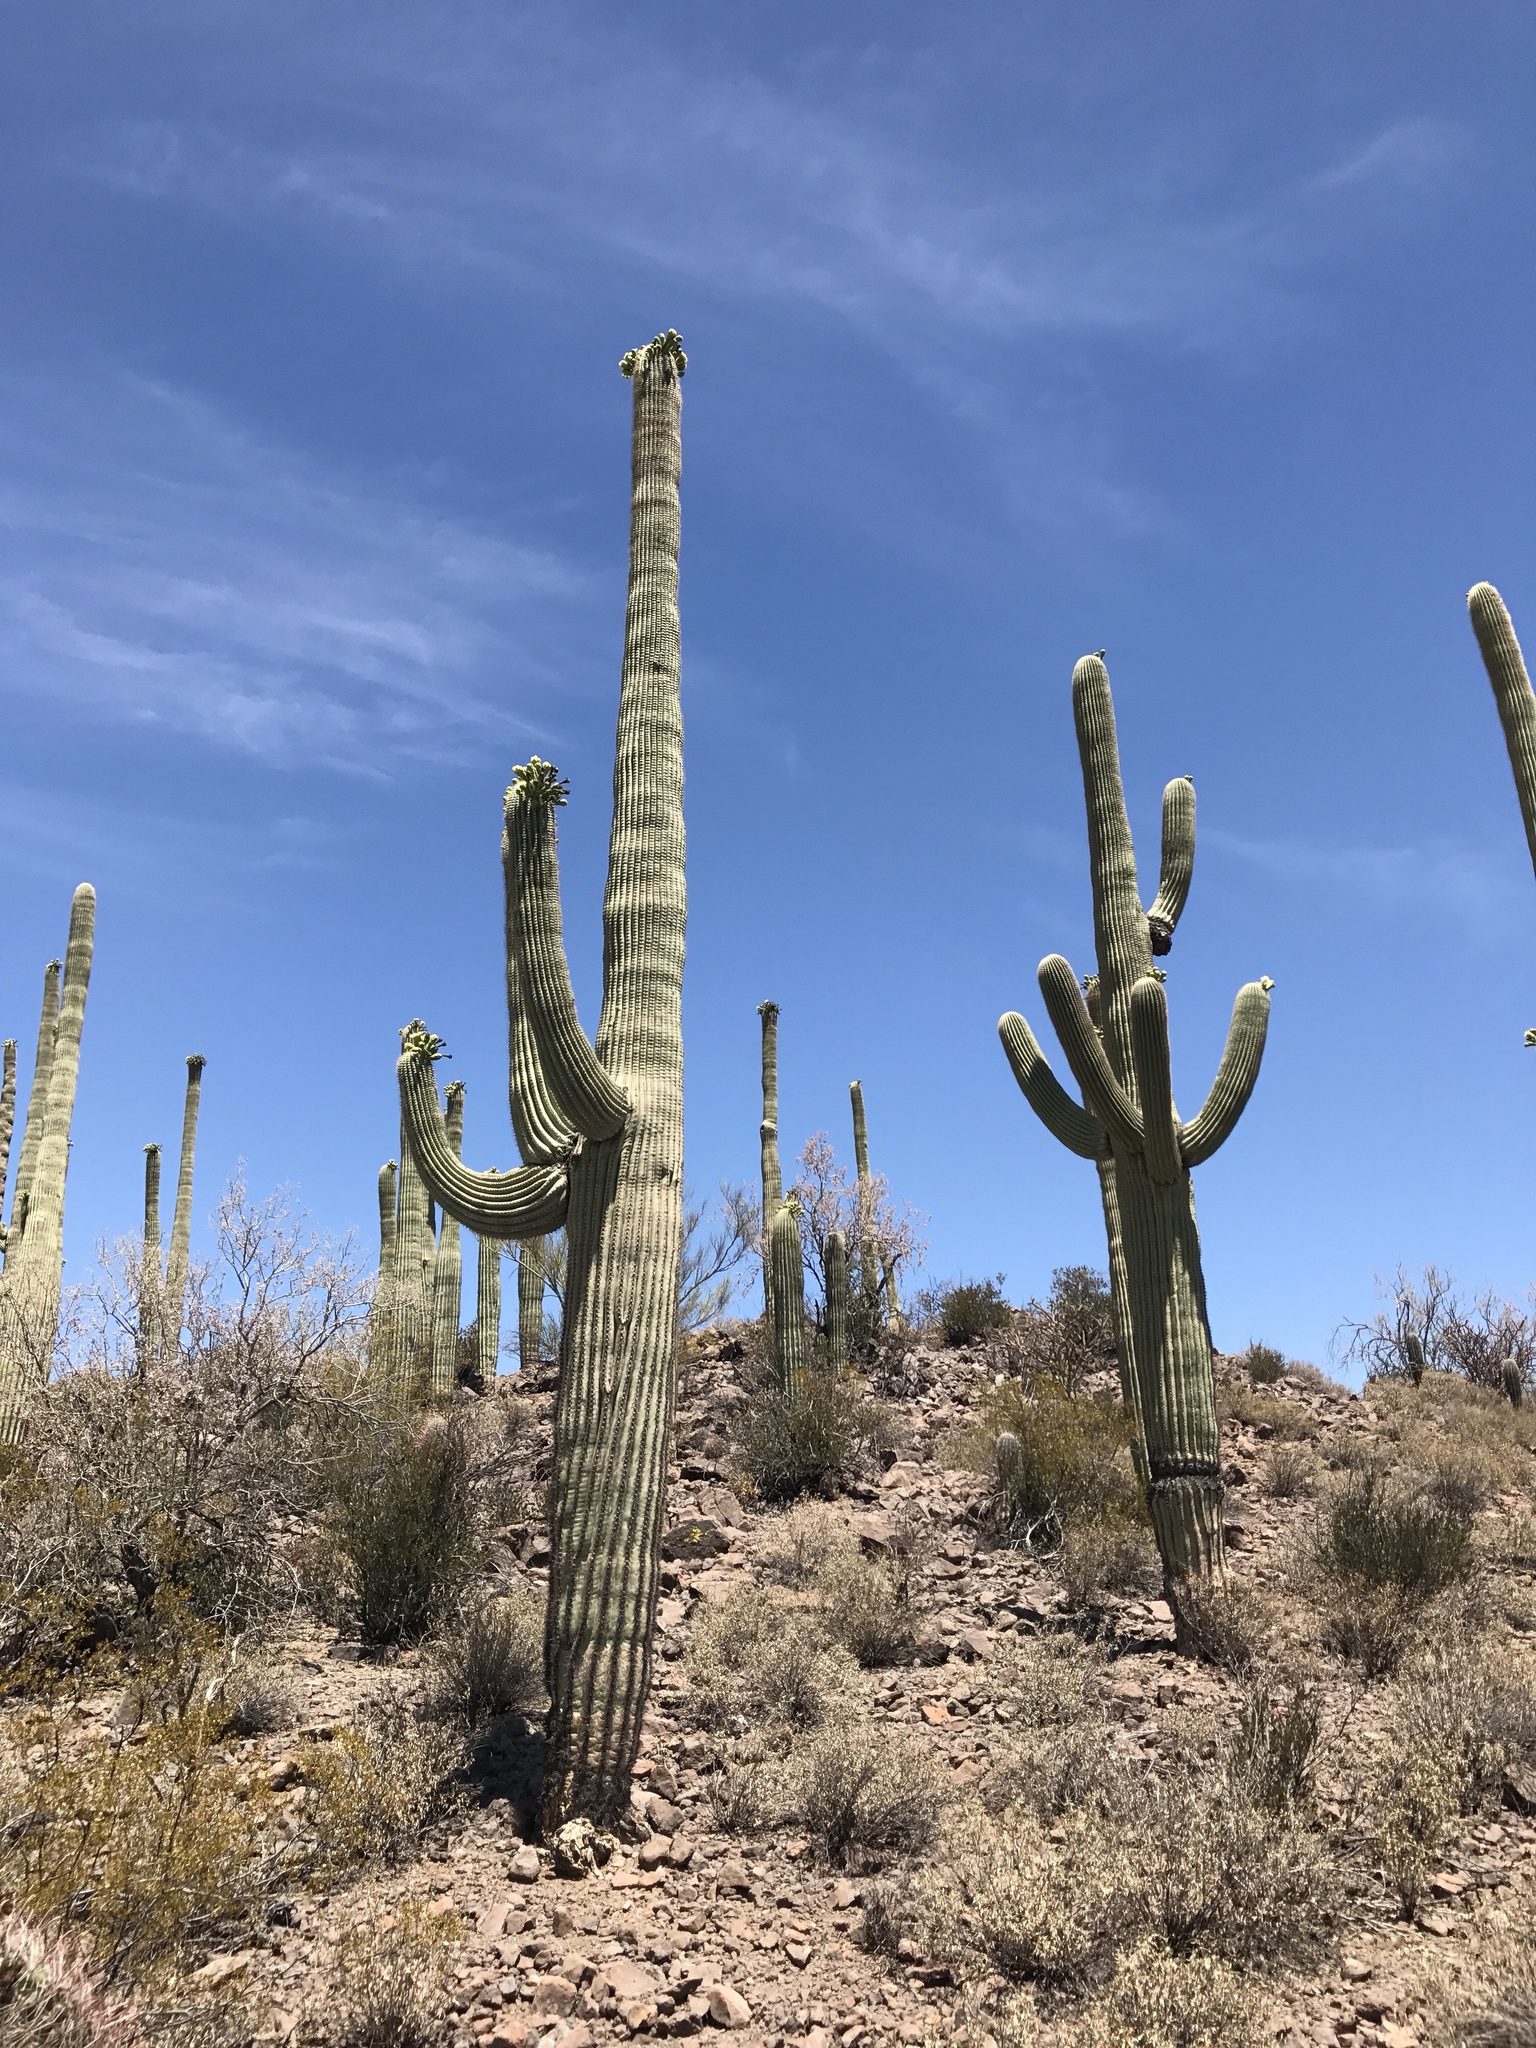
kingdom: Plantae
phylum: Tracheophyta
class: Magnoliopsida
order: Caryophyllales
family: Cactaceae
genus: Carnegiea
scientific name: Carnegiea gigantea
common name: Saguaro
